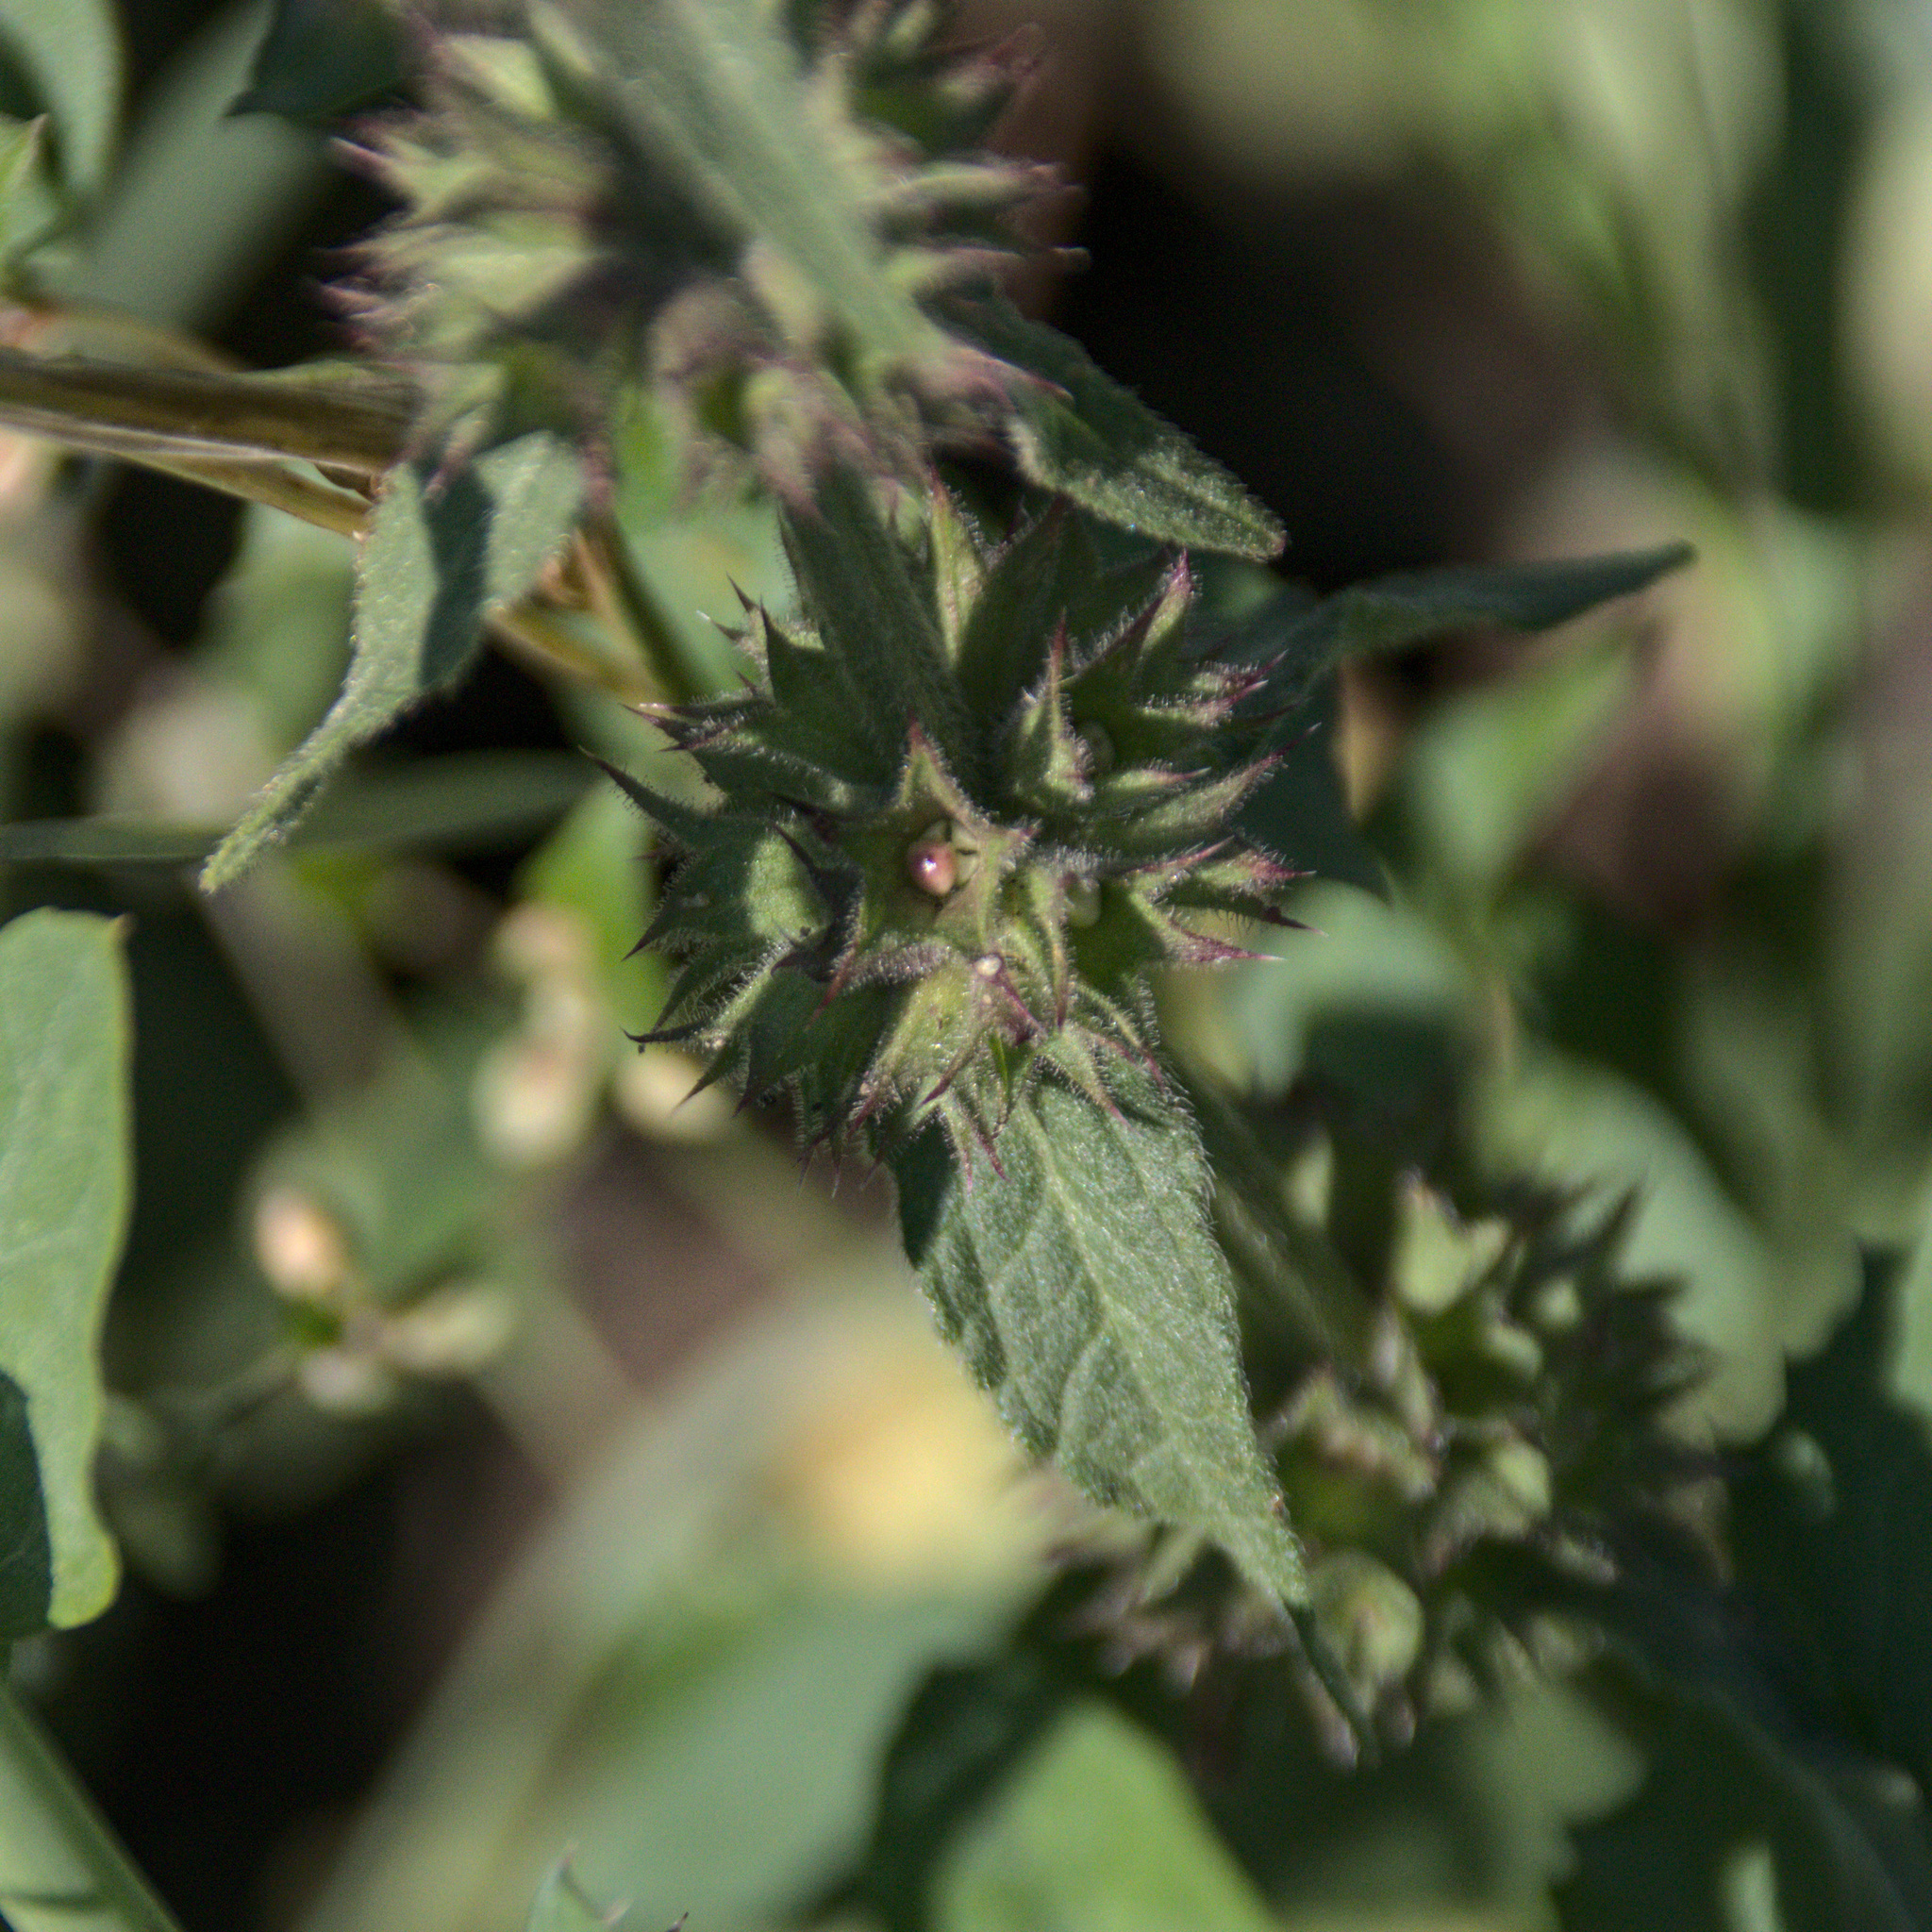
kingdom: Plantae
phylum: Tracheophyta
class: Magnoliopsida
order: Lamiales
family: Lamiaceae
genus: Stachys
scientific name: Stachys palustris
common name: Marsh woundwort
